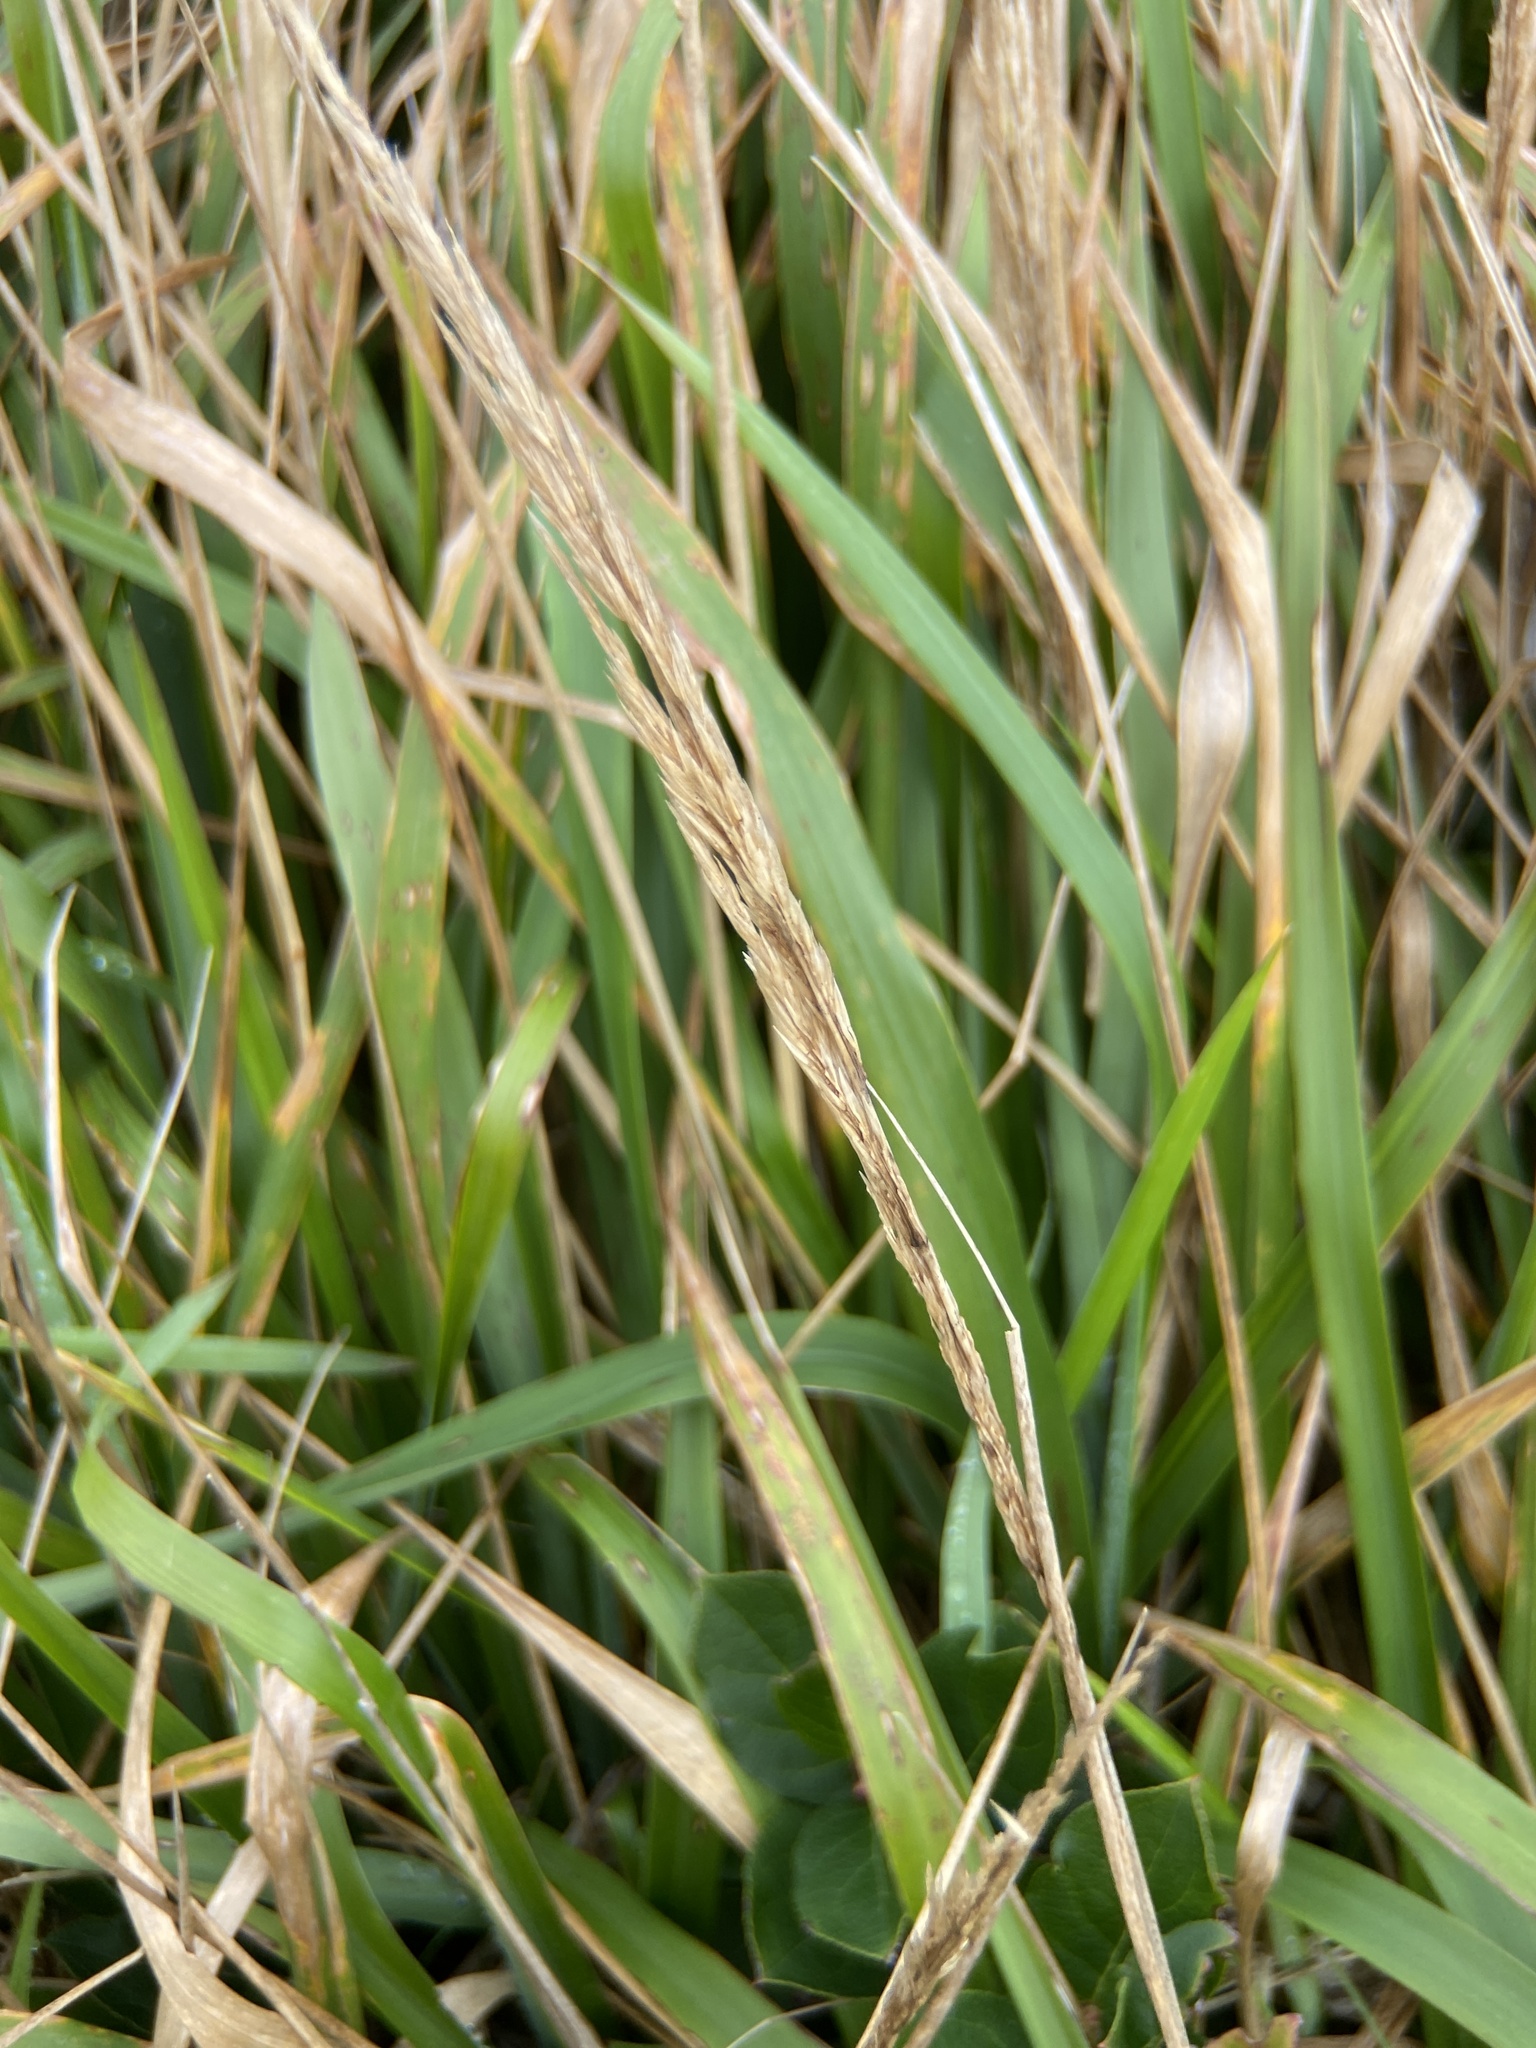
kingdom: Plantae
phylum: Tracheophyta
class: Liliopsida
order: Poales
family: Poaceae
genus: Calamagrostis
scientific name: Calamagrostis nutkaensis
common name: Pacific reed grass
